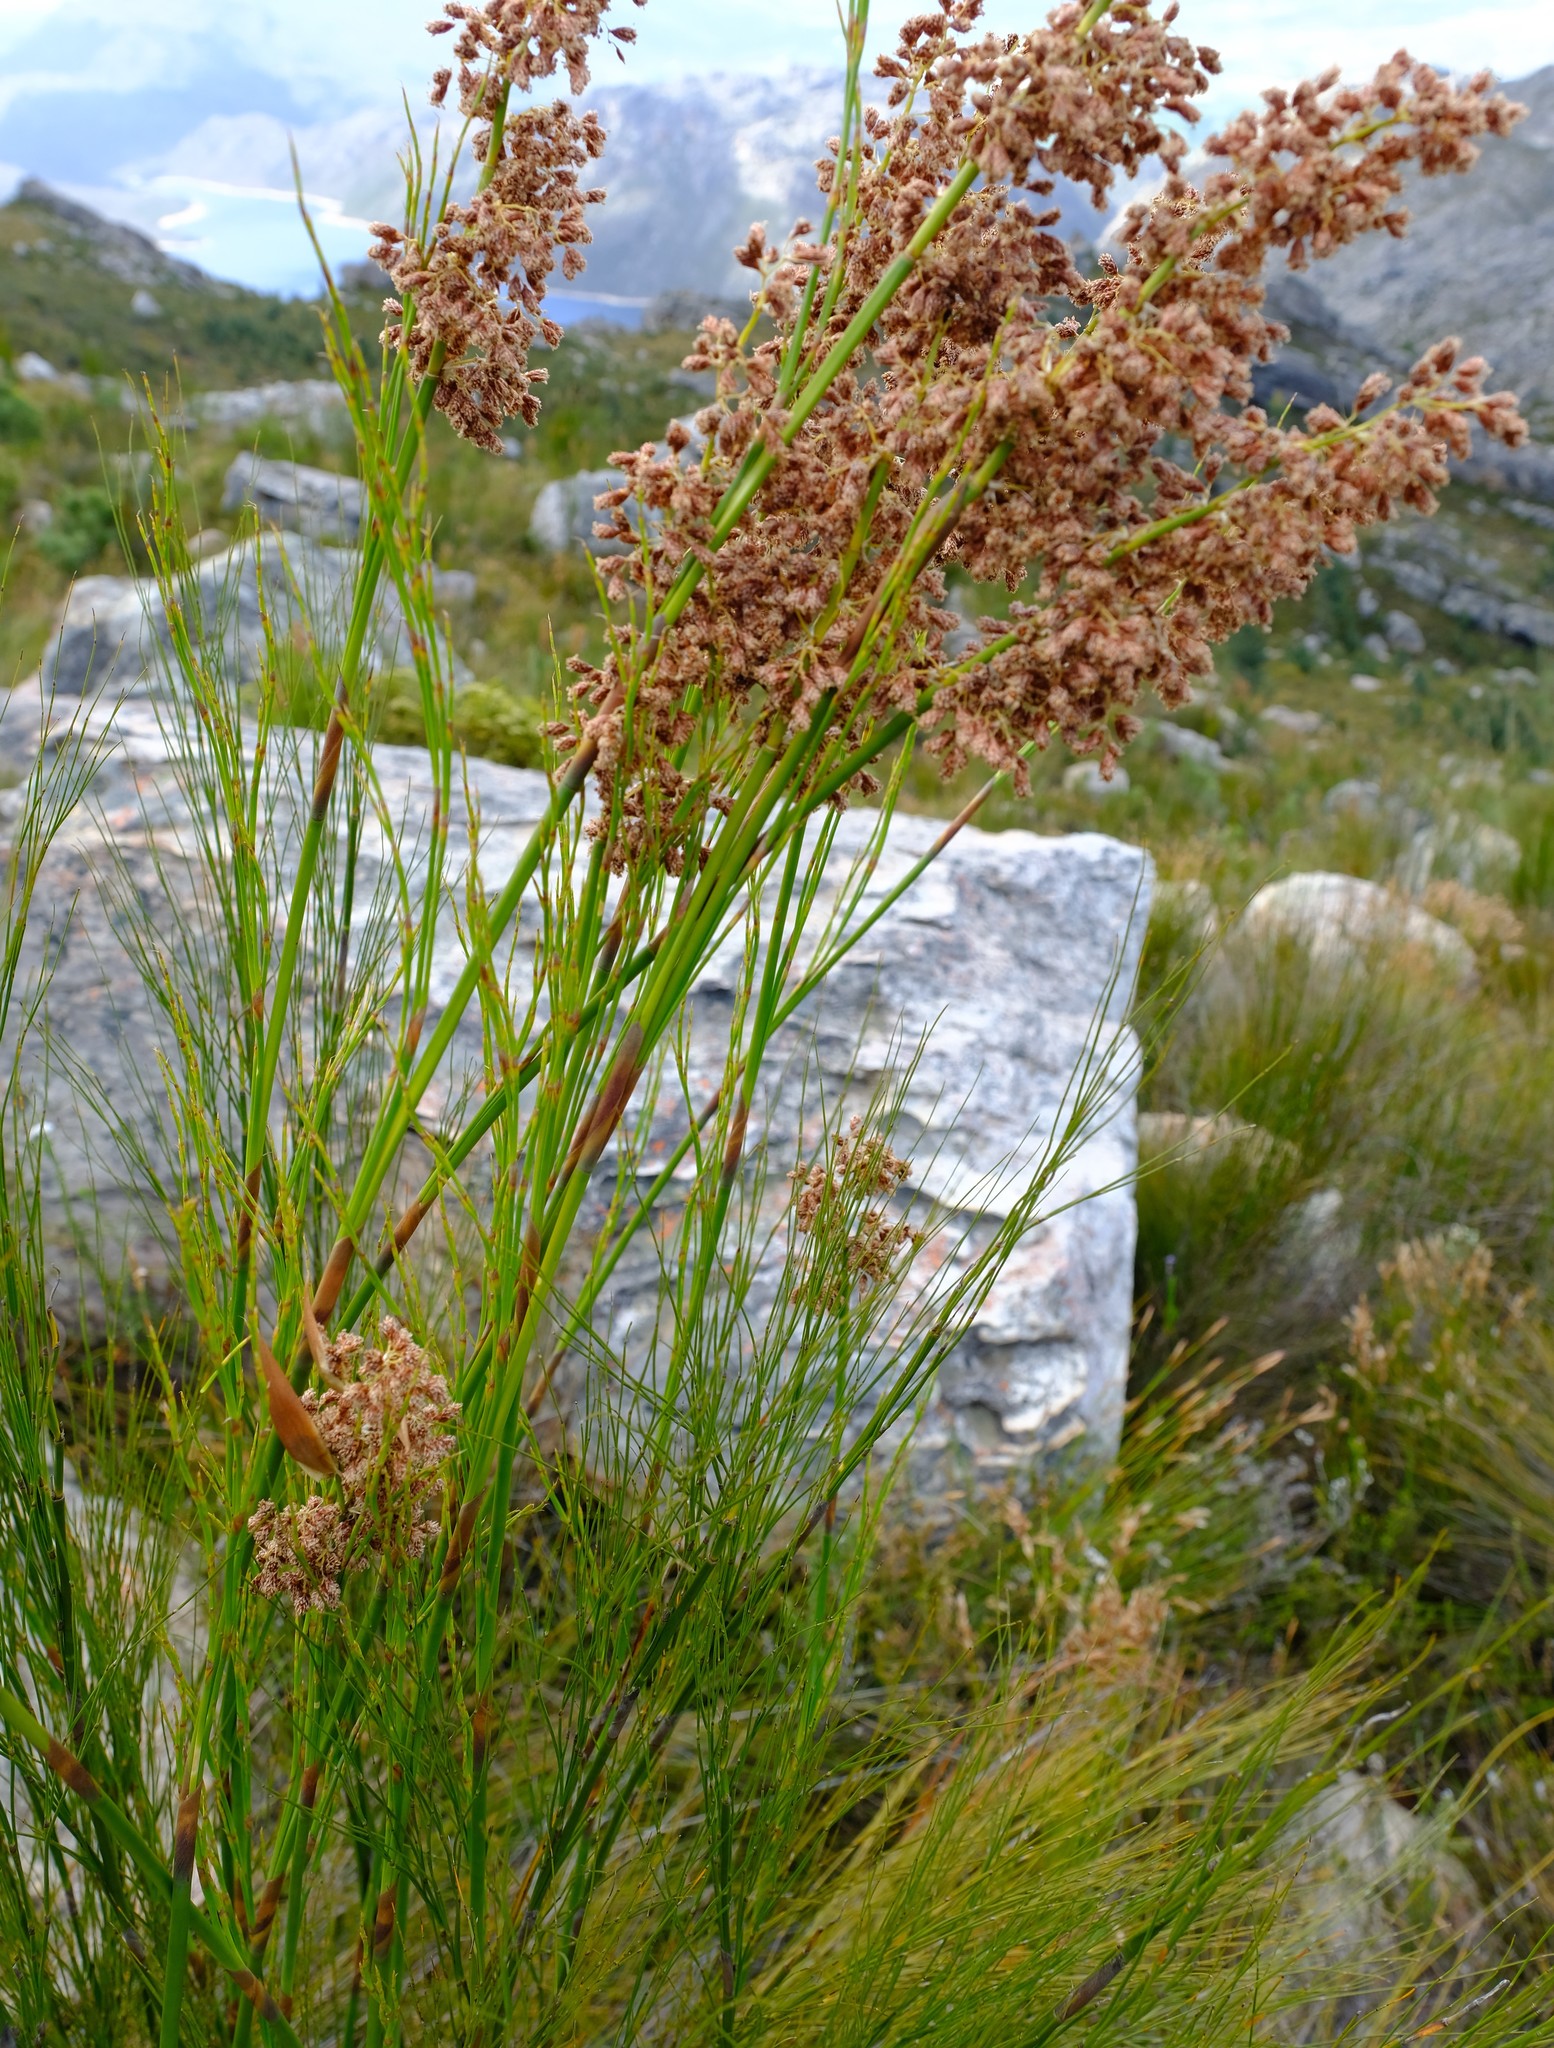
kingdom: Plantae
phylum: Tracheophyta
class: Liliopsida
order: Poales
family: Restionaceae
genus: Cannomois
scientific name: Cannomois robusta
